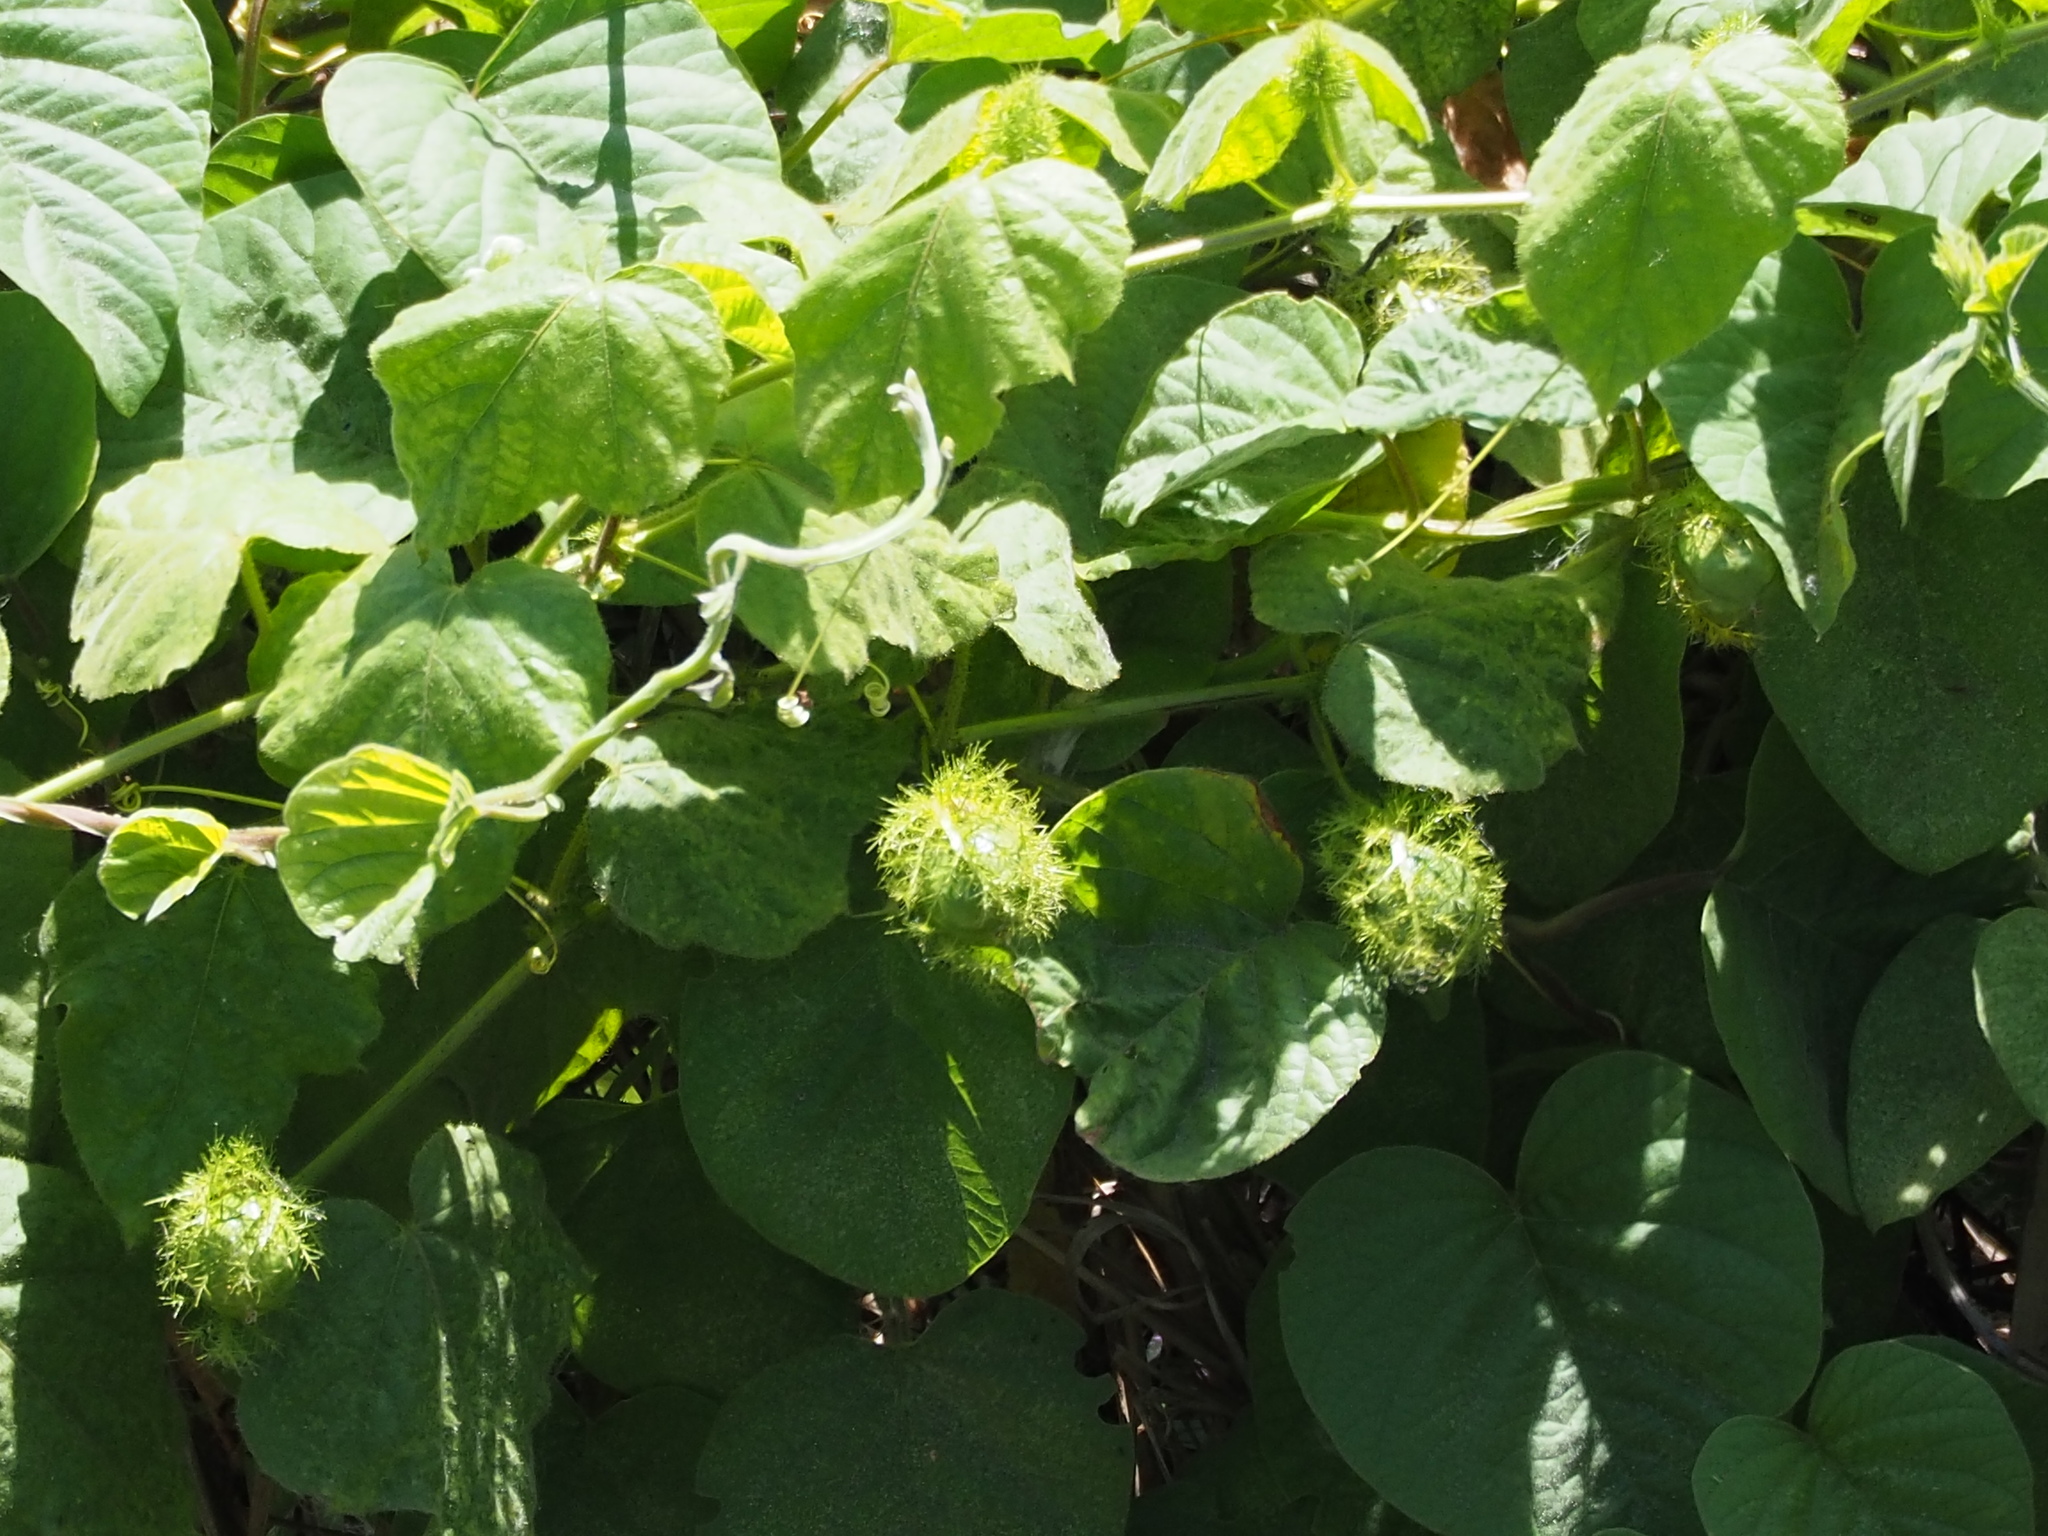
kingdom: Plantae
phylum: Tracheophyta
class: Magnoliopsida
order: Malpighiales
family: Passifloraceae
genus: Passiflora
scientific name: Passiflora vesicaria
